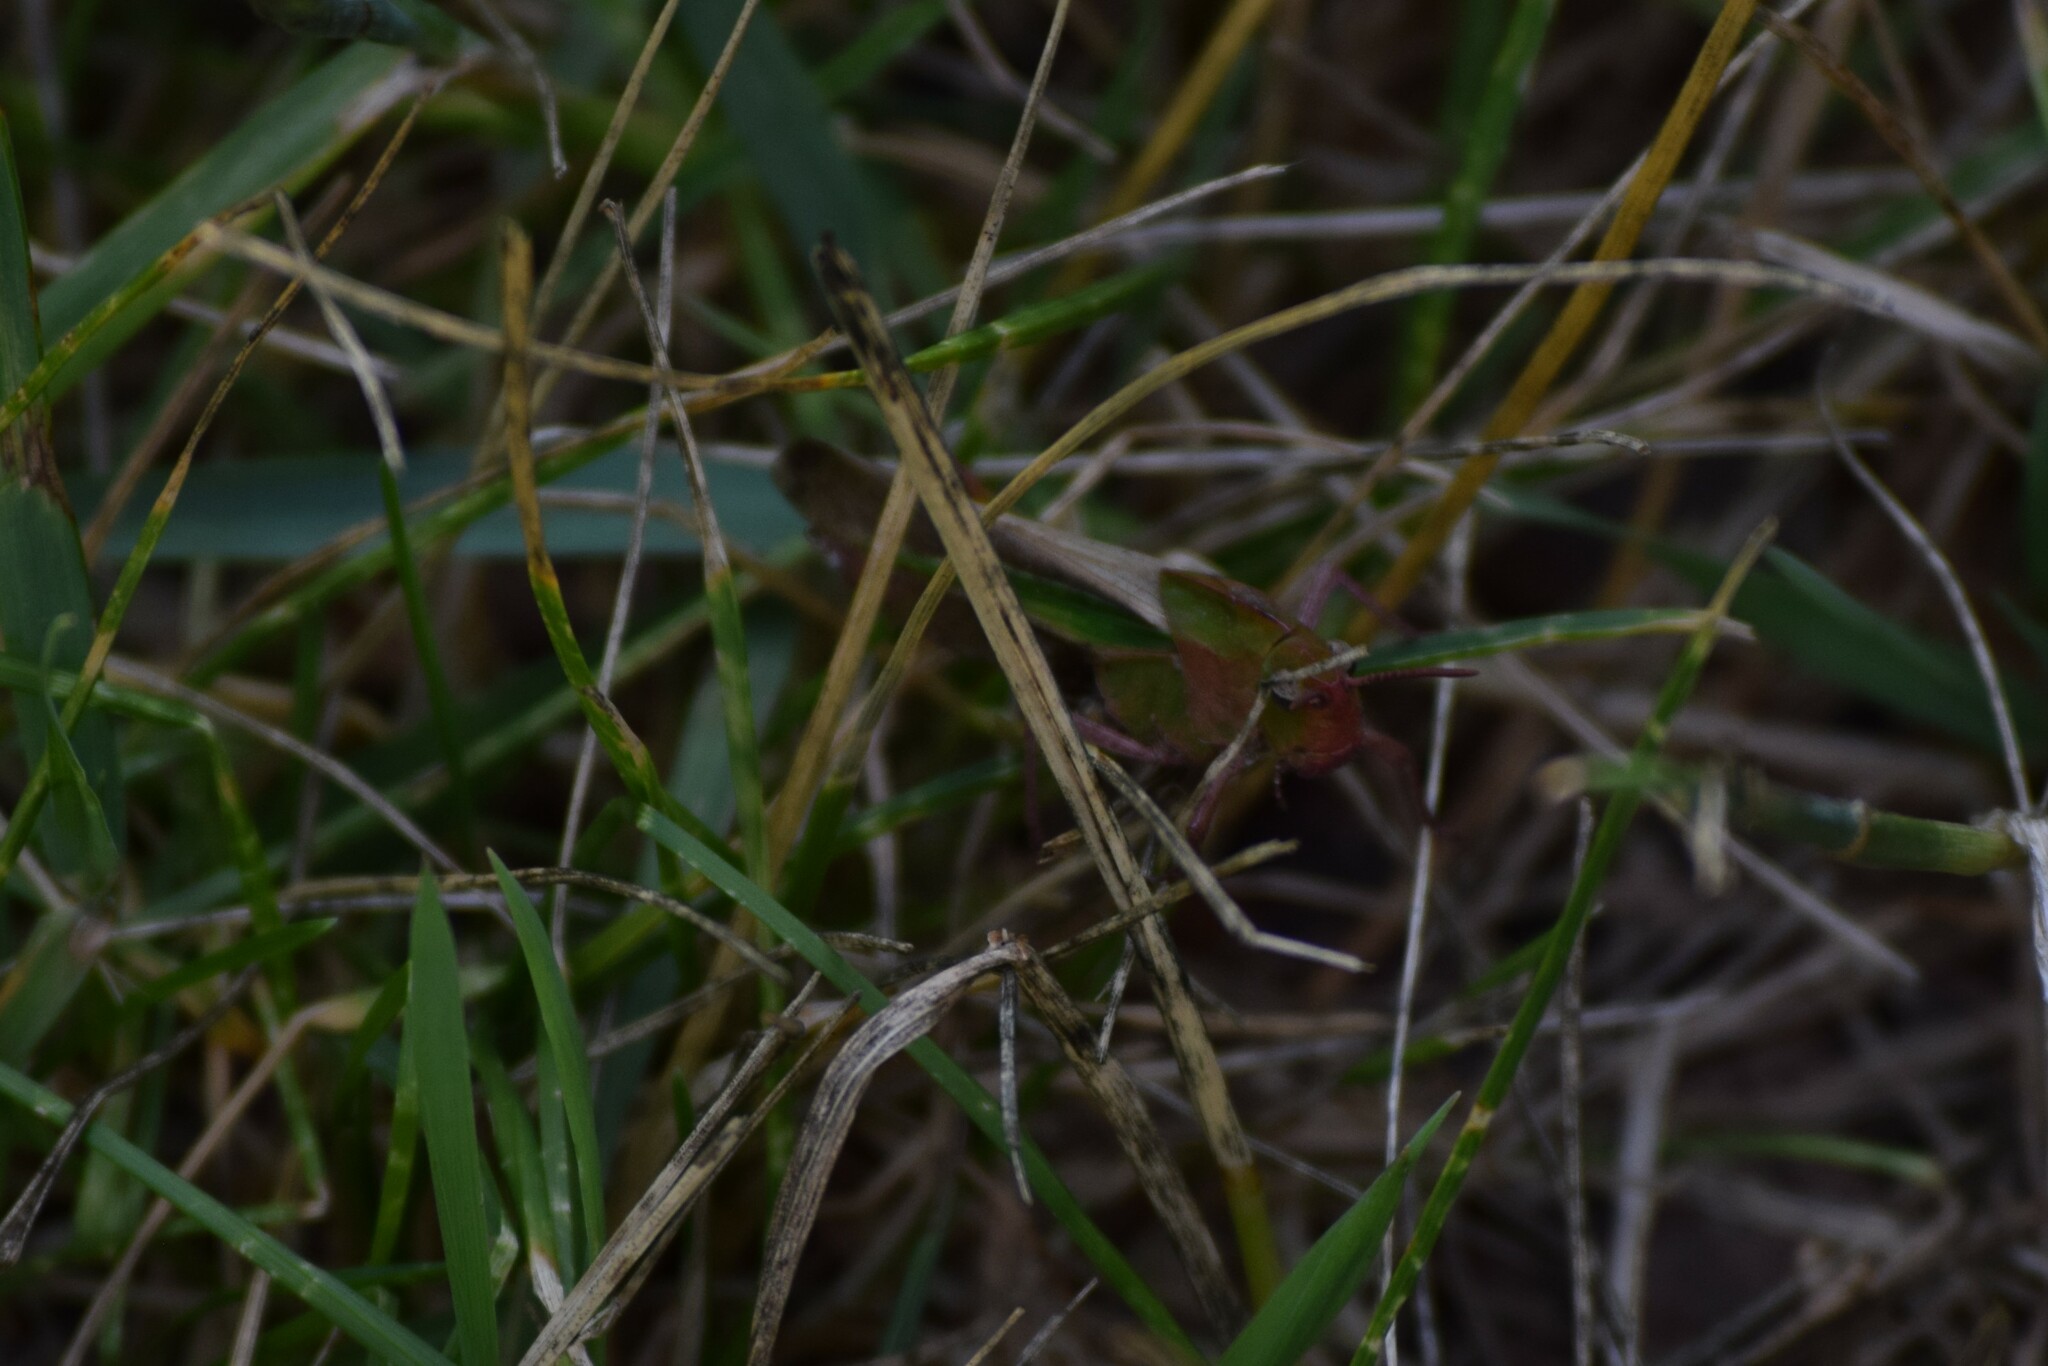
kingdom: Animalia
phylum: Arthropoda
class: Insecta
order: Orthoptera
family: Acrididae
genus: Chortophaga
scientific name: Chortophaga viridifasciata
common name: Green-striped grasshopper
